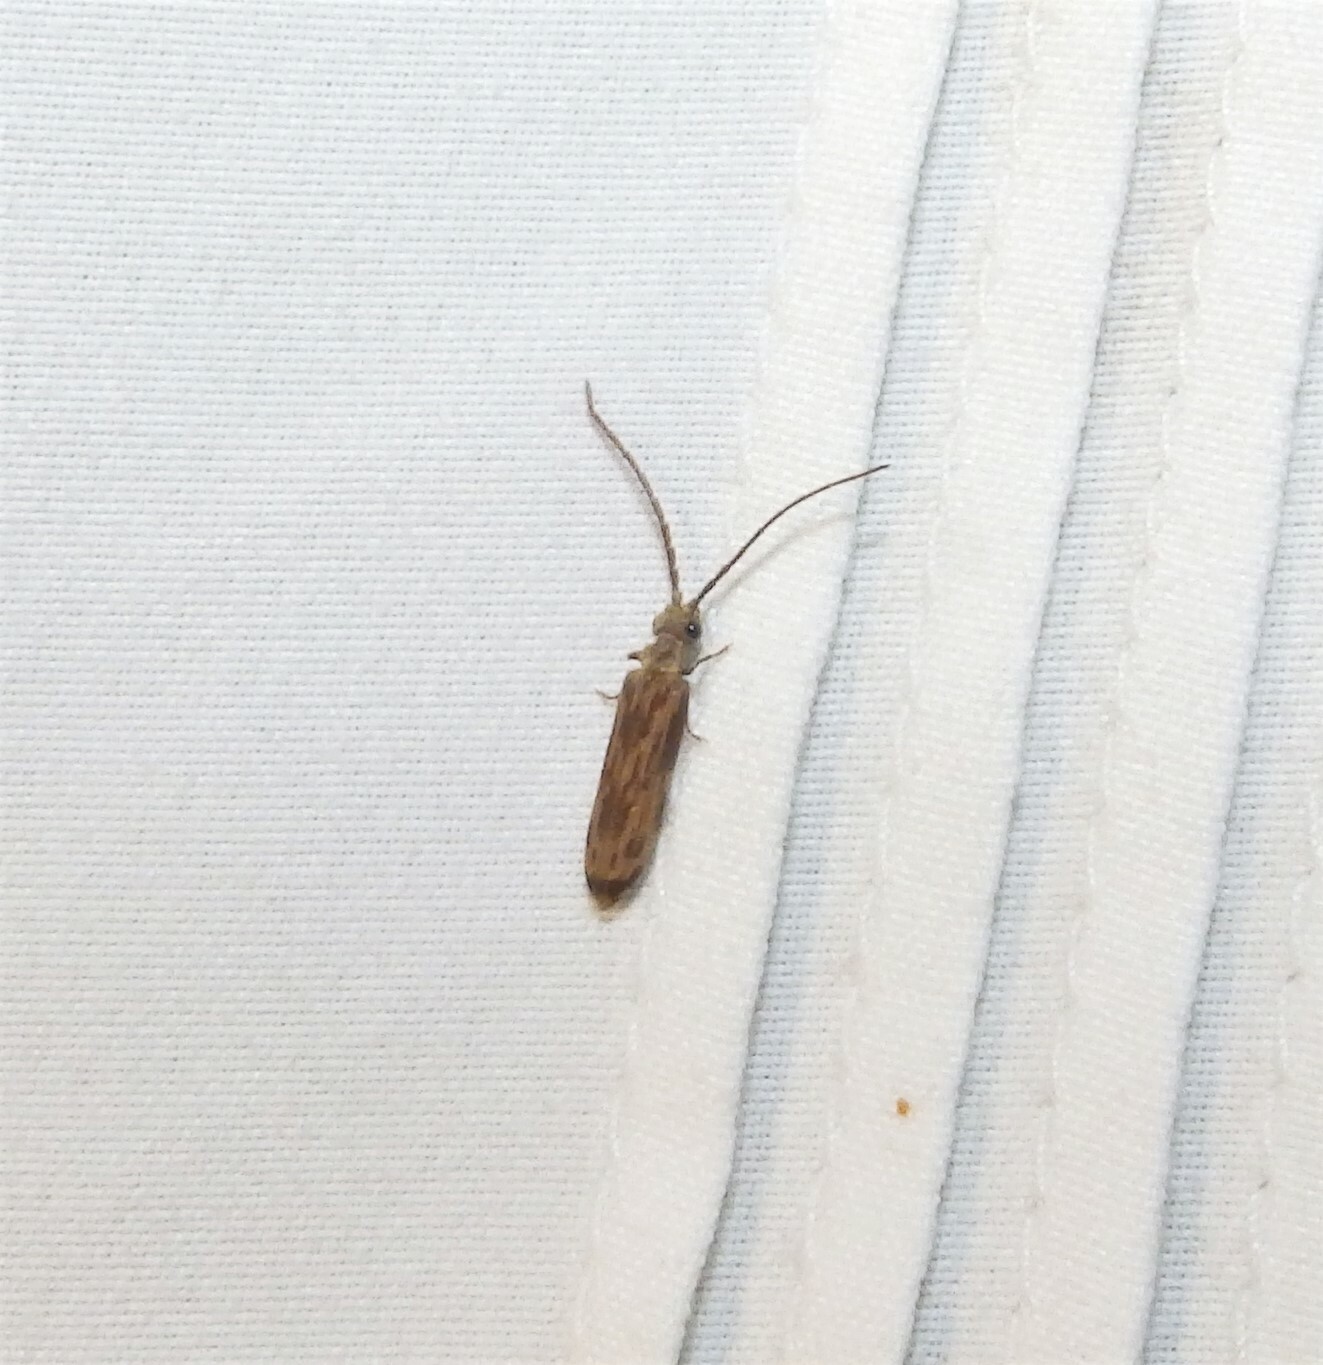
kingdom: Animalia
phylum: Arthropoda
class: Insecta
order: Coleoptera
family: Cupedidae
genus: Tenomerga
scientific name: Tenomerga cinerea
